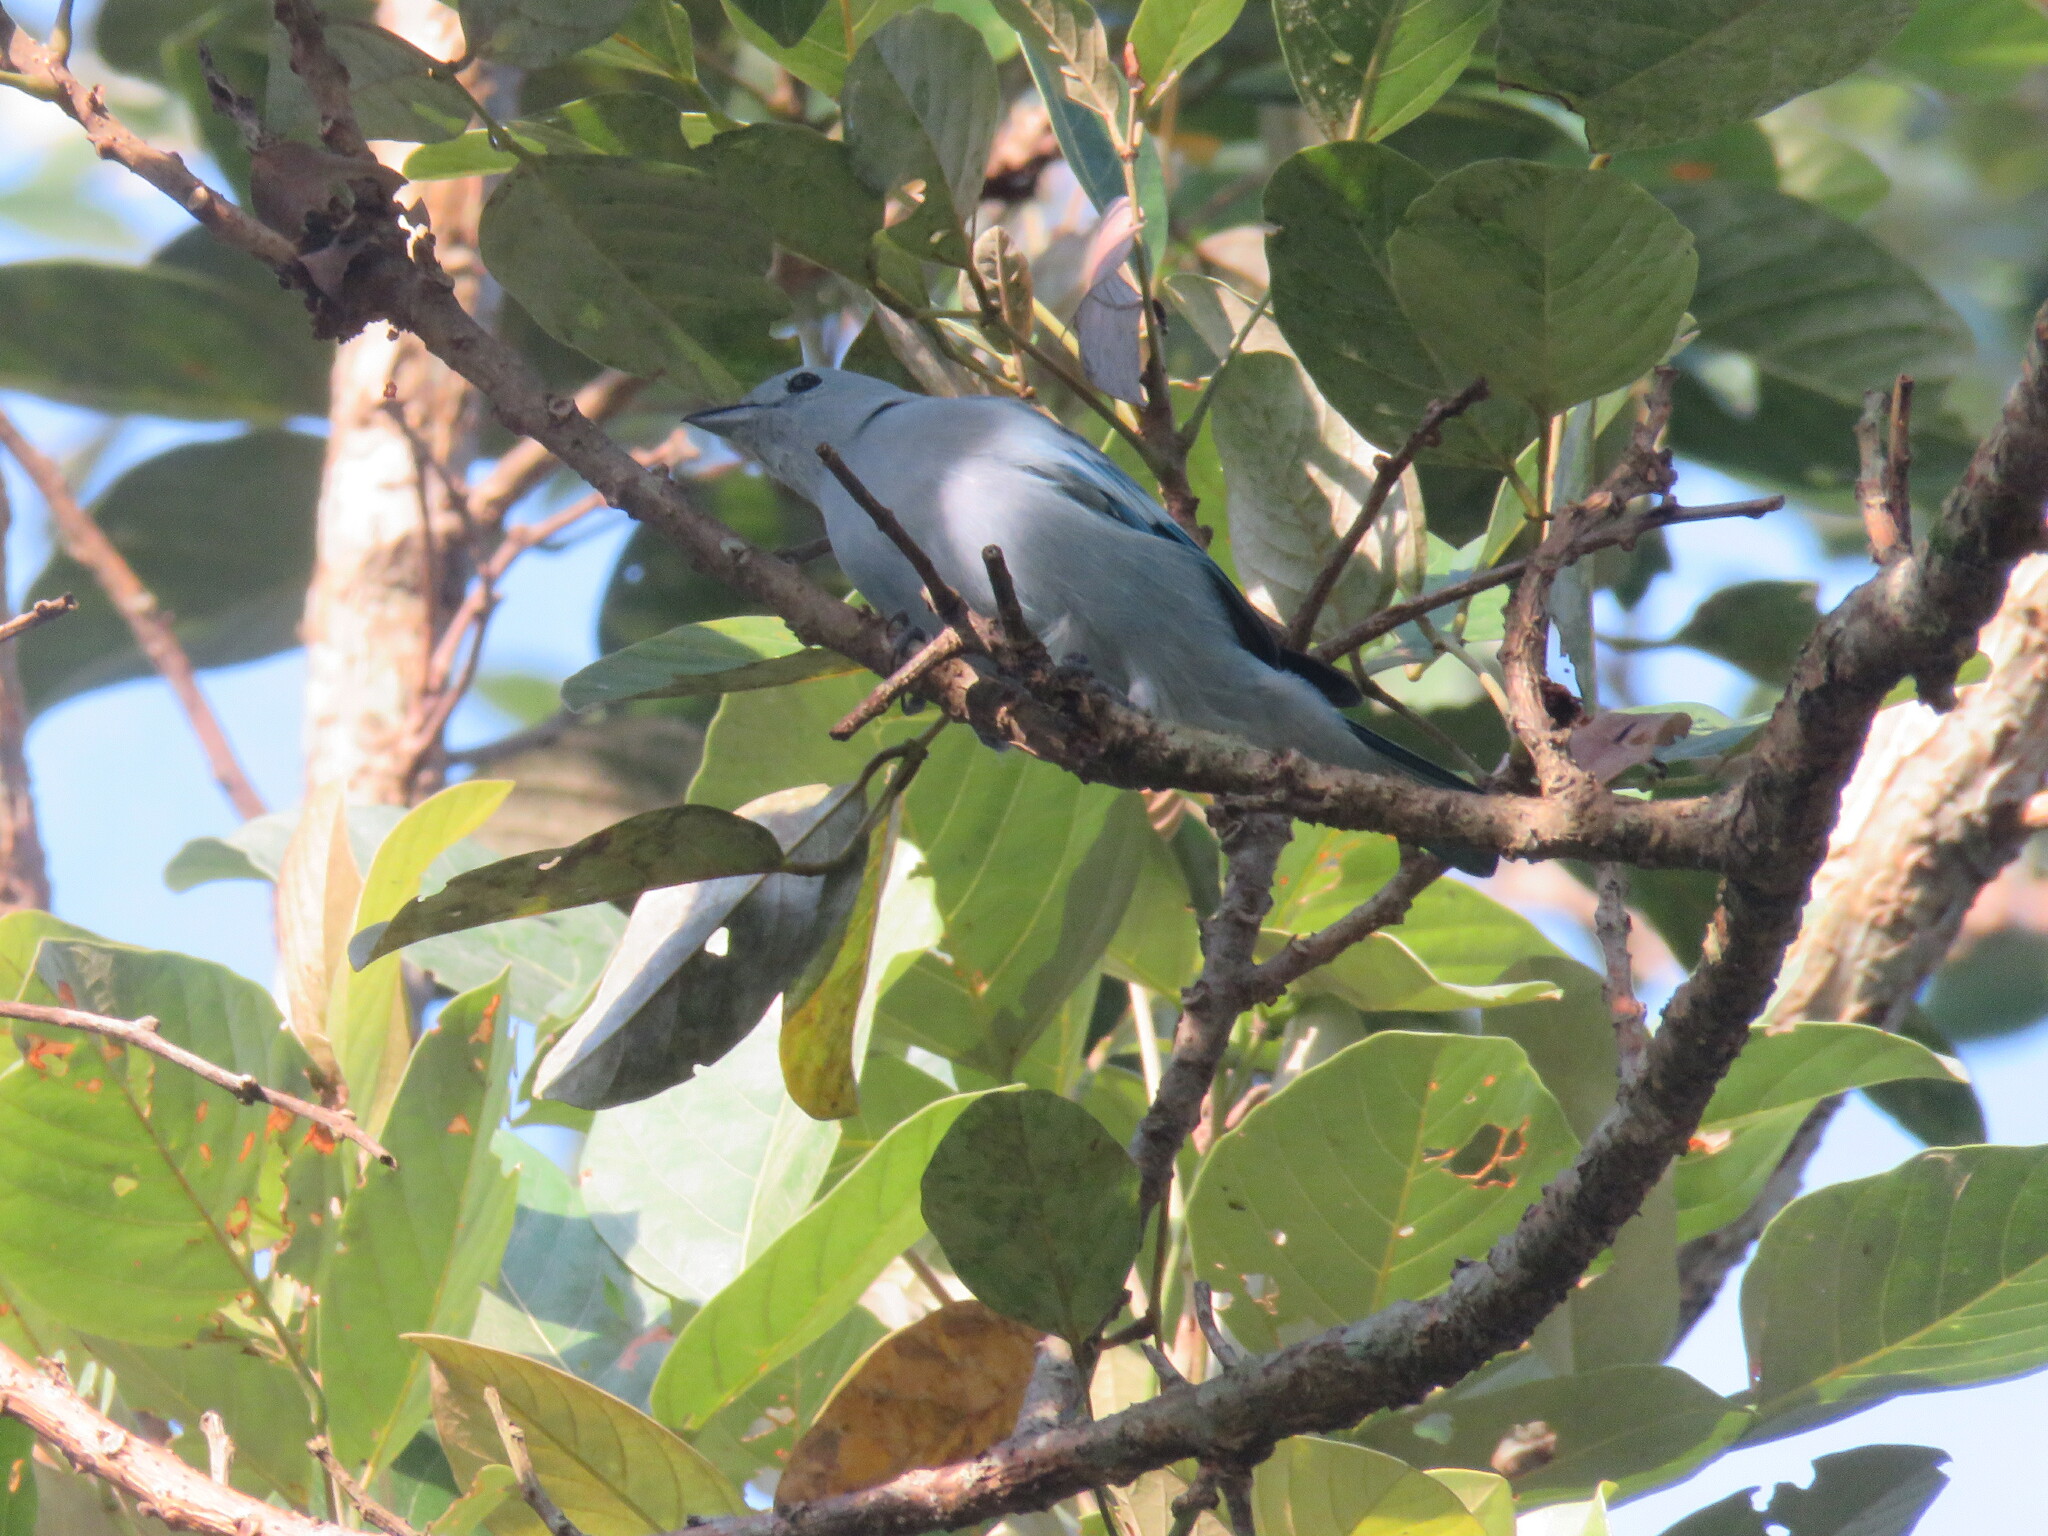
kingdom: Animalia
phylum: Chordata
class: Aves
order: Passeriformes
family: Thraupidae
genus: Thraupis
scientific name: Thraupis episcopus
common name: Blue-grey tanager
